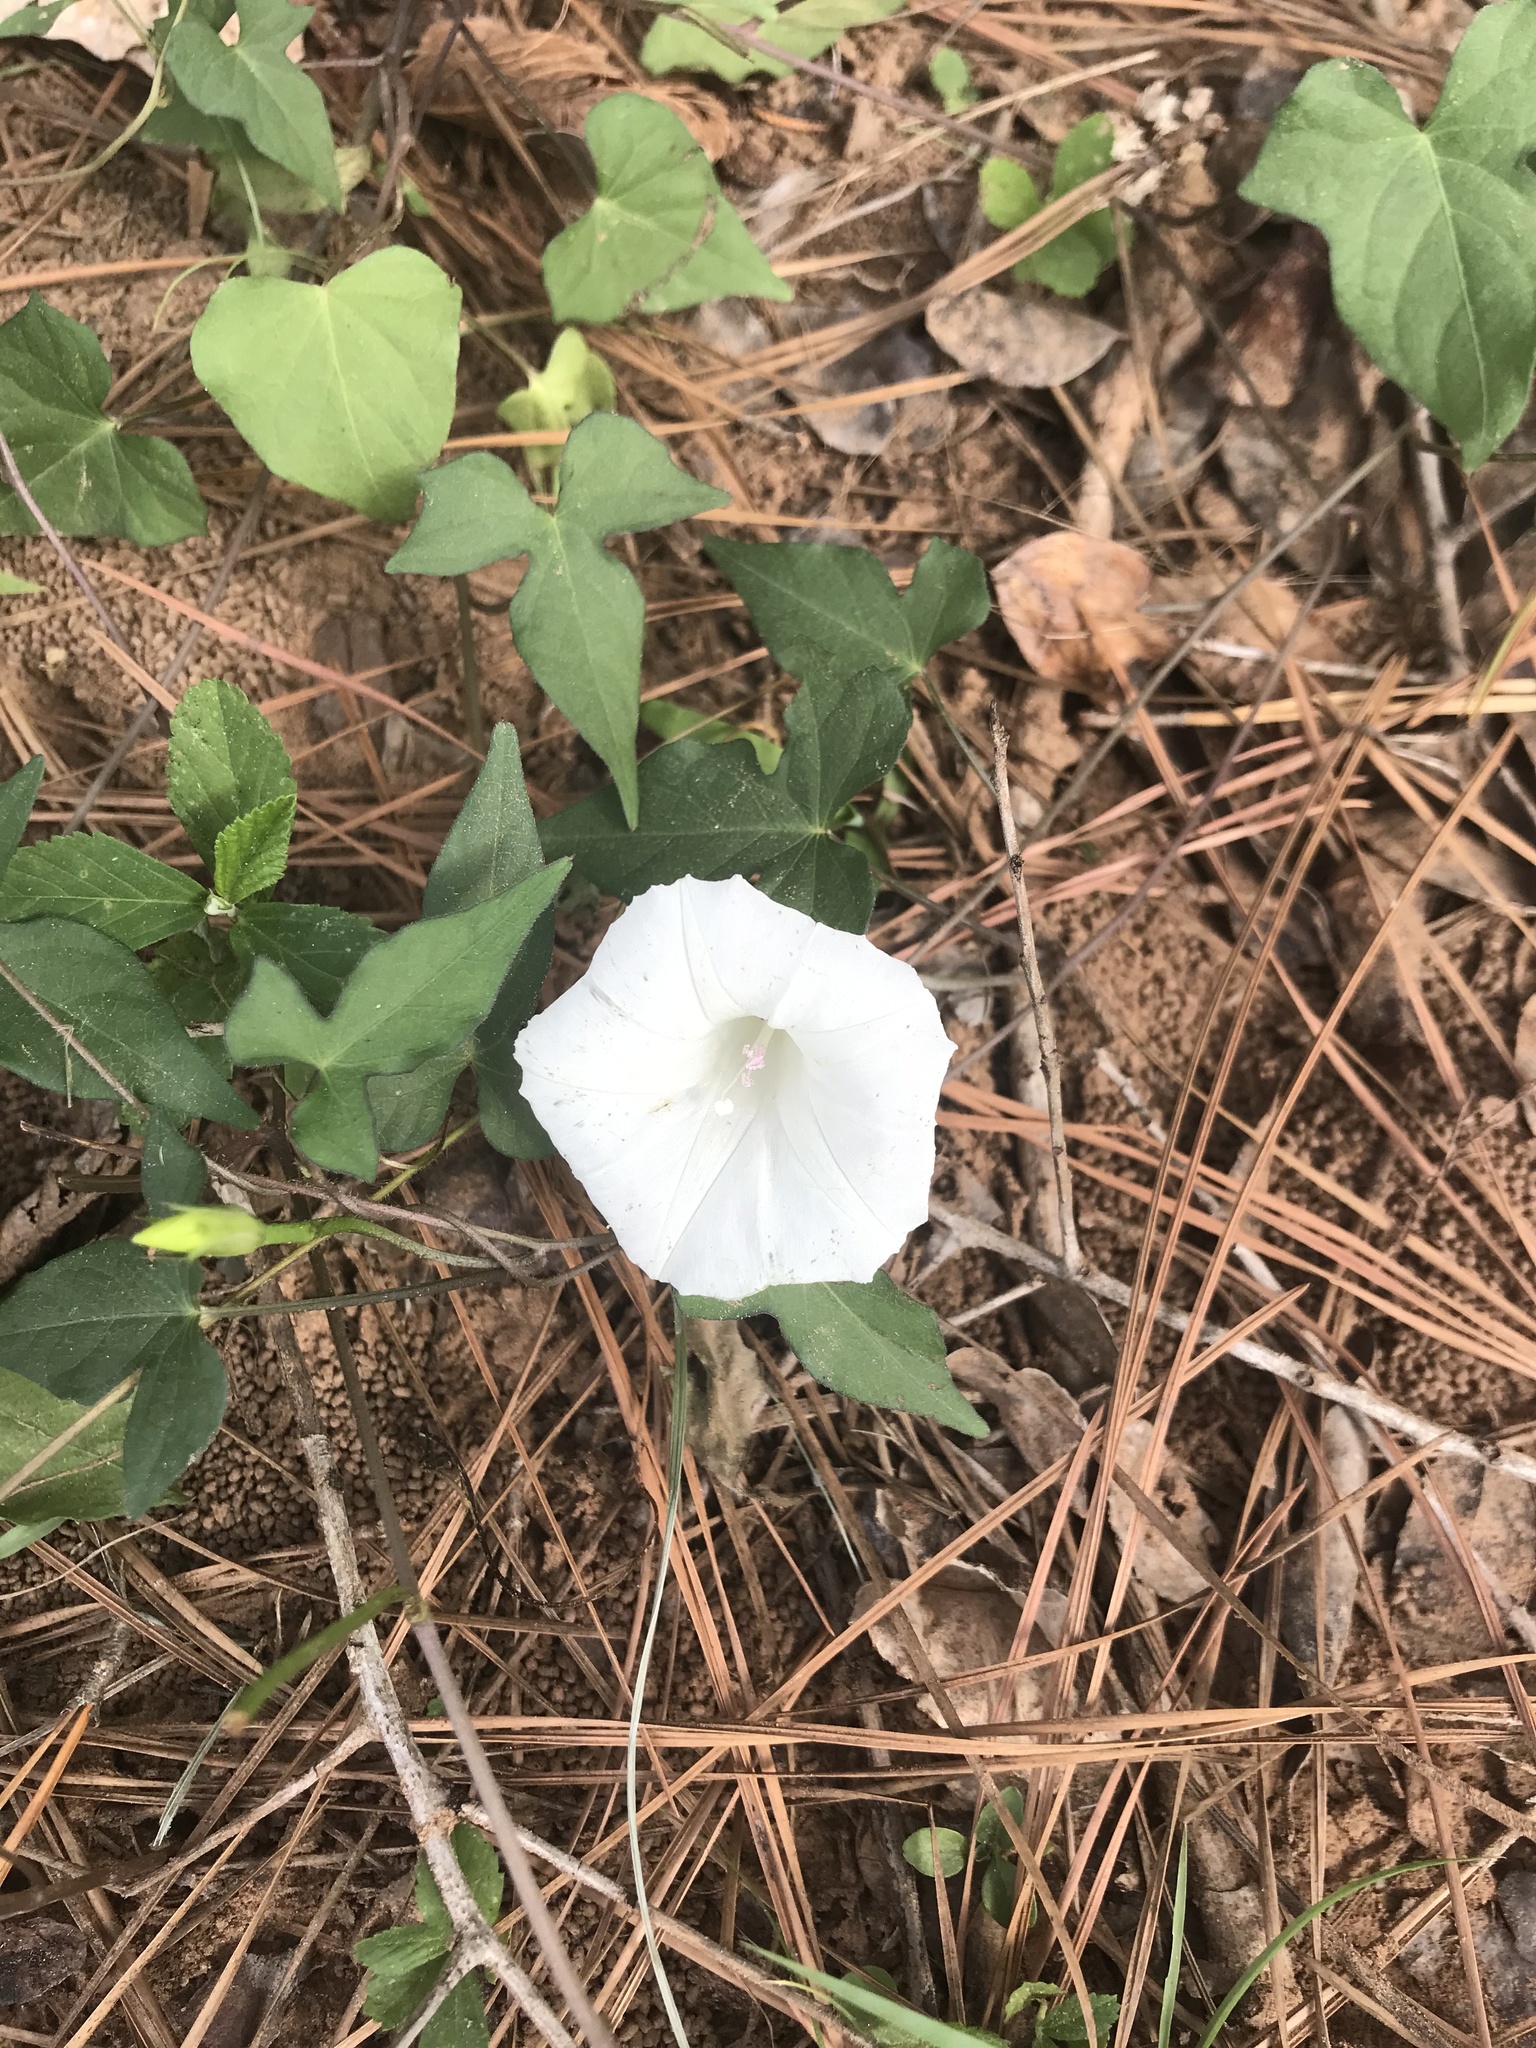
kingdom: Plantae
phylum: Tracheophyta
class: Magnoliopsida
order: Solanales
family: Convolvulaceae
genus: Ipomoea
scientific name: Ipomoea lacunosa
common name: White morning-glory
